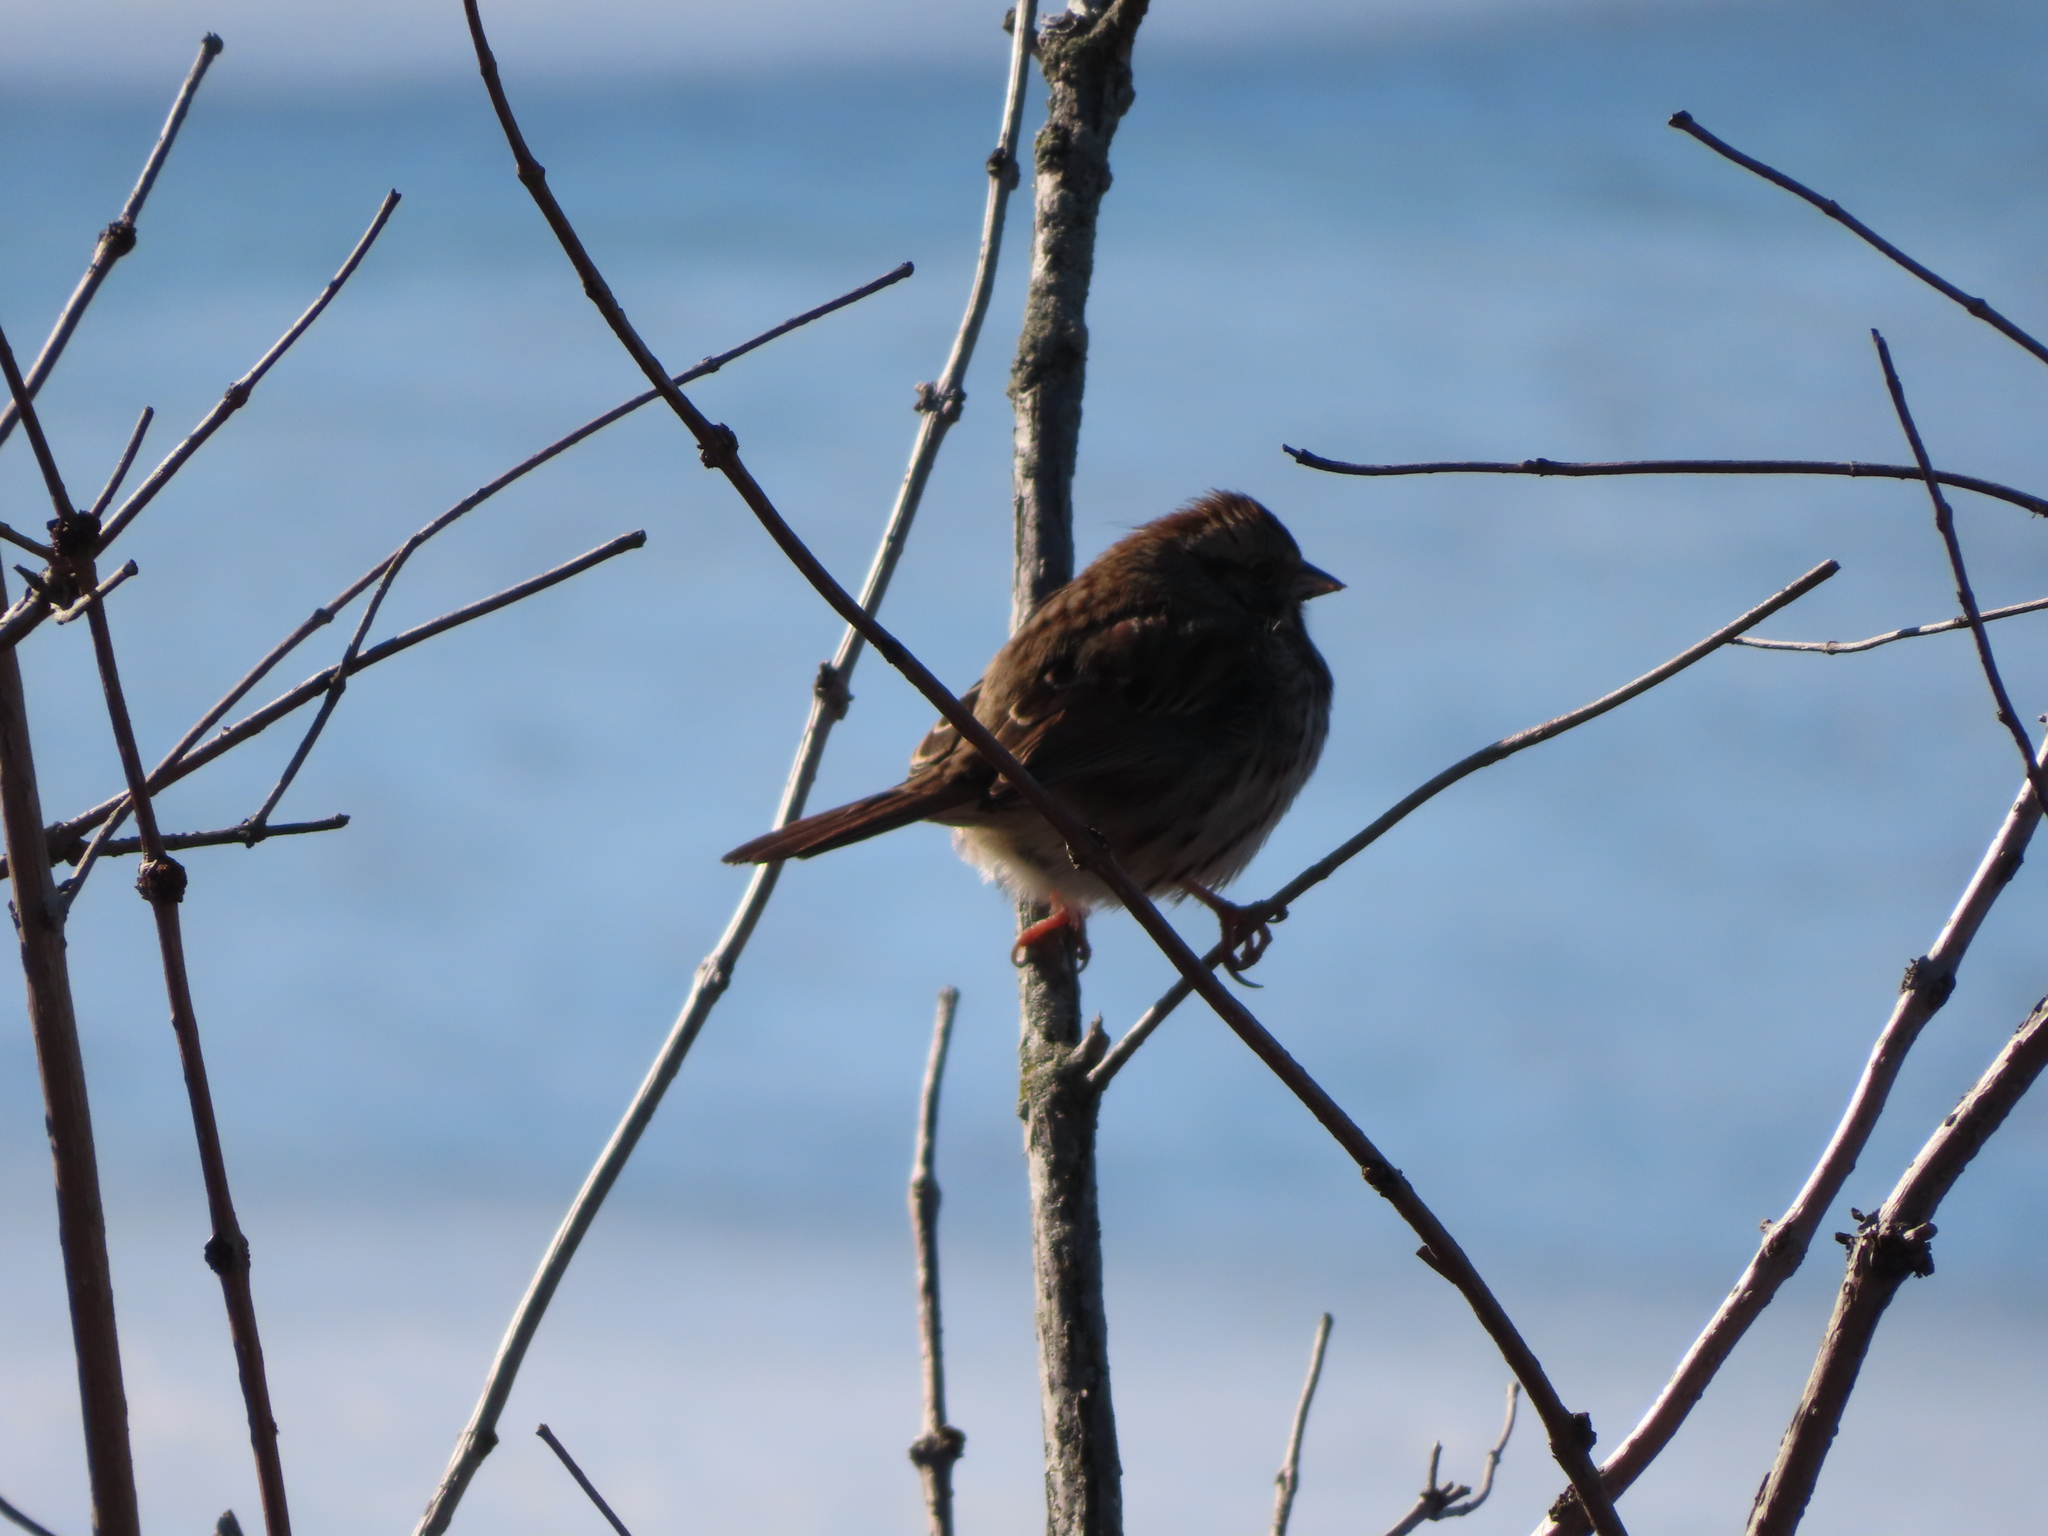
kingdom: Animalia
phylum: Chordata
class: Aves
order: Passeriformes
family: Passerellidae
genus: Melospiza
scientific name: Melospiza melodia
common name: Song sparrow
